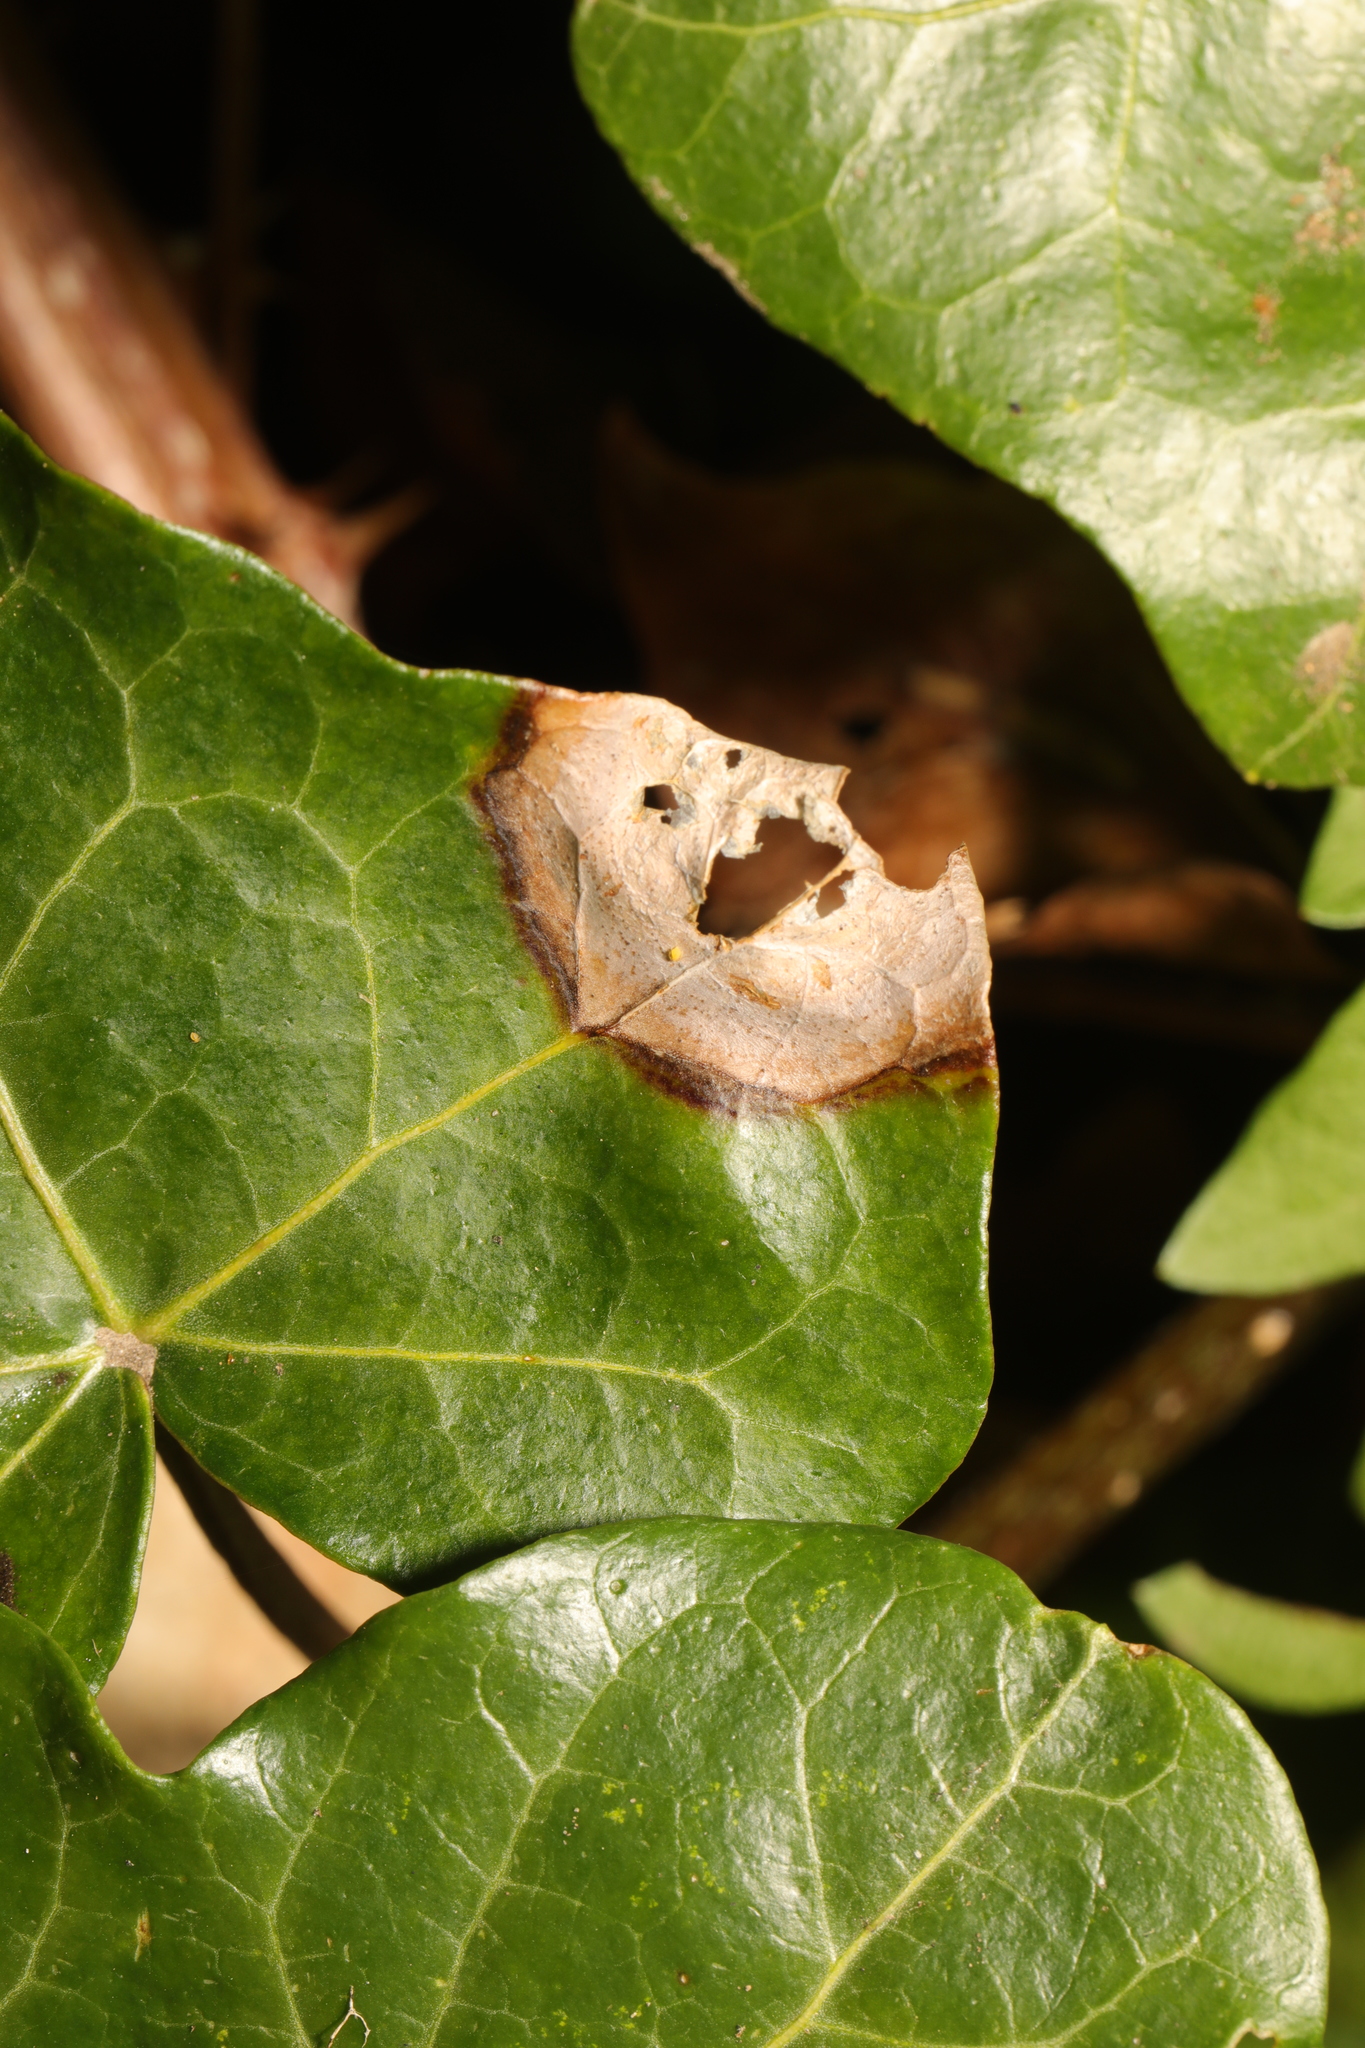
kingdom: Fungi
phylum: Ascomycota
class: Dothideomycetes
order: Pleosporales
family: Didymellaceae
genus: Boeremia
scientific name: Boeremia hedericola
